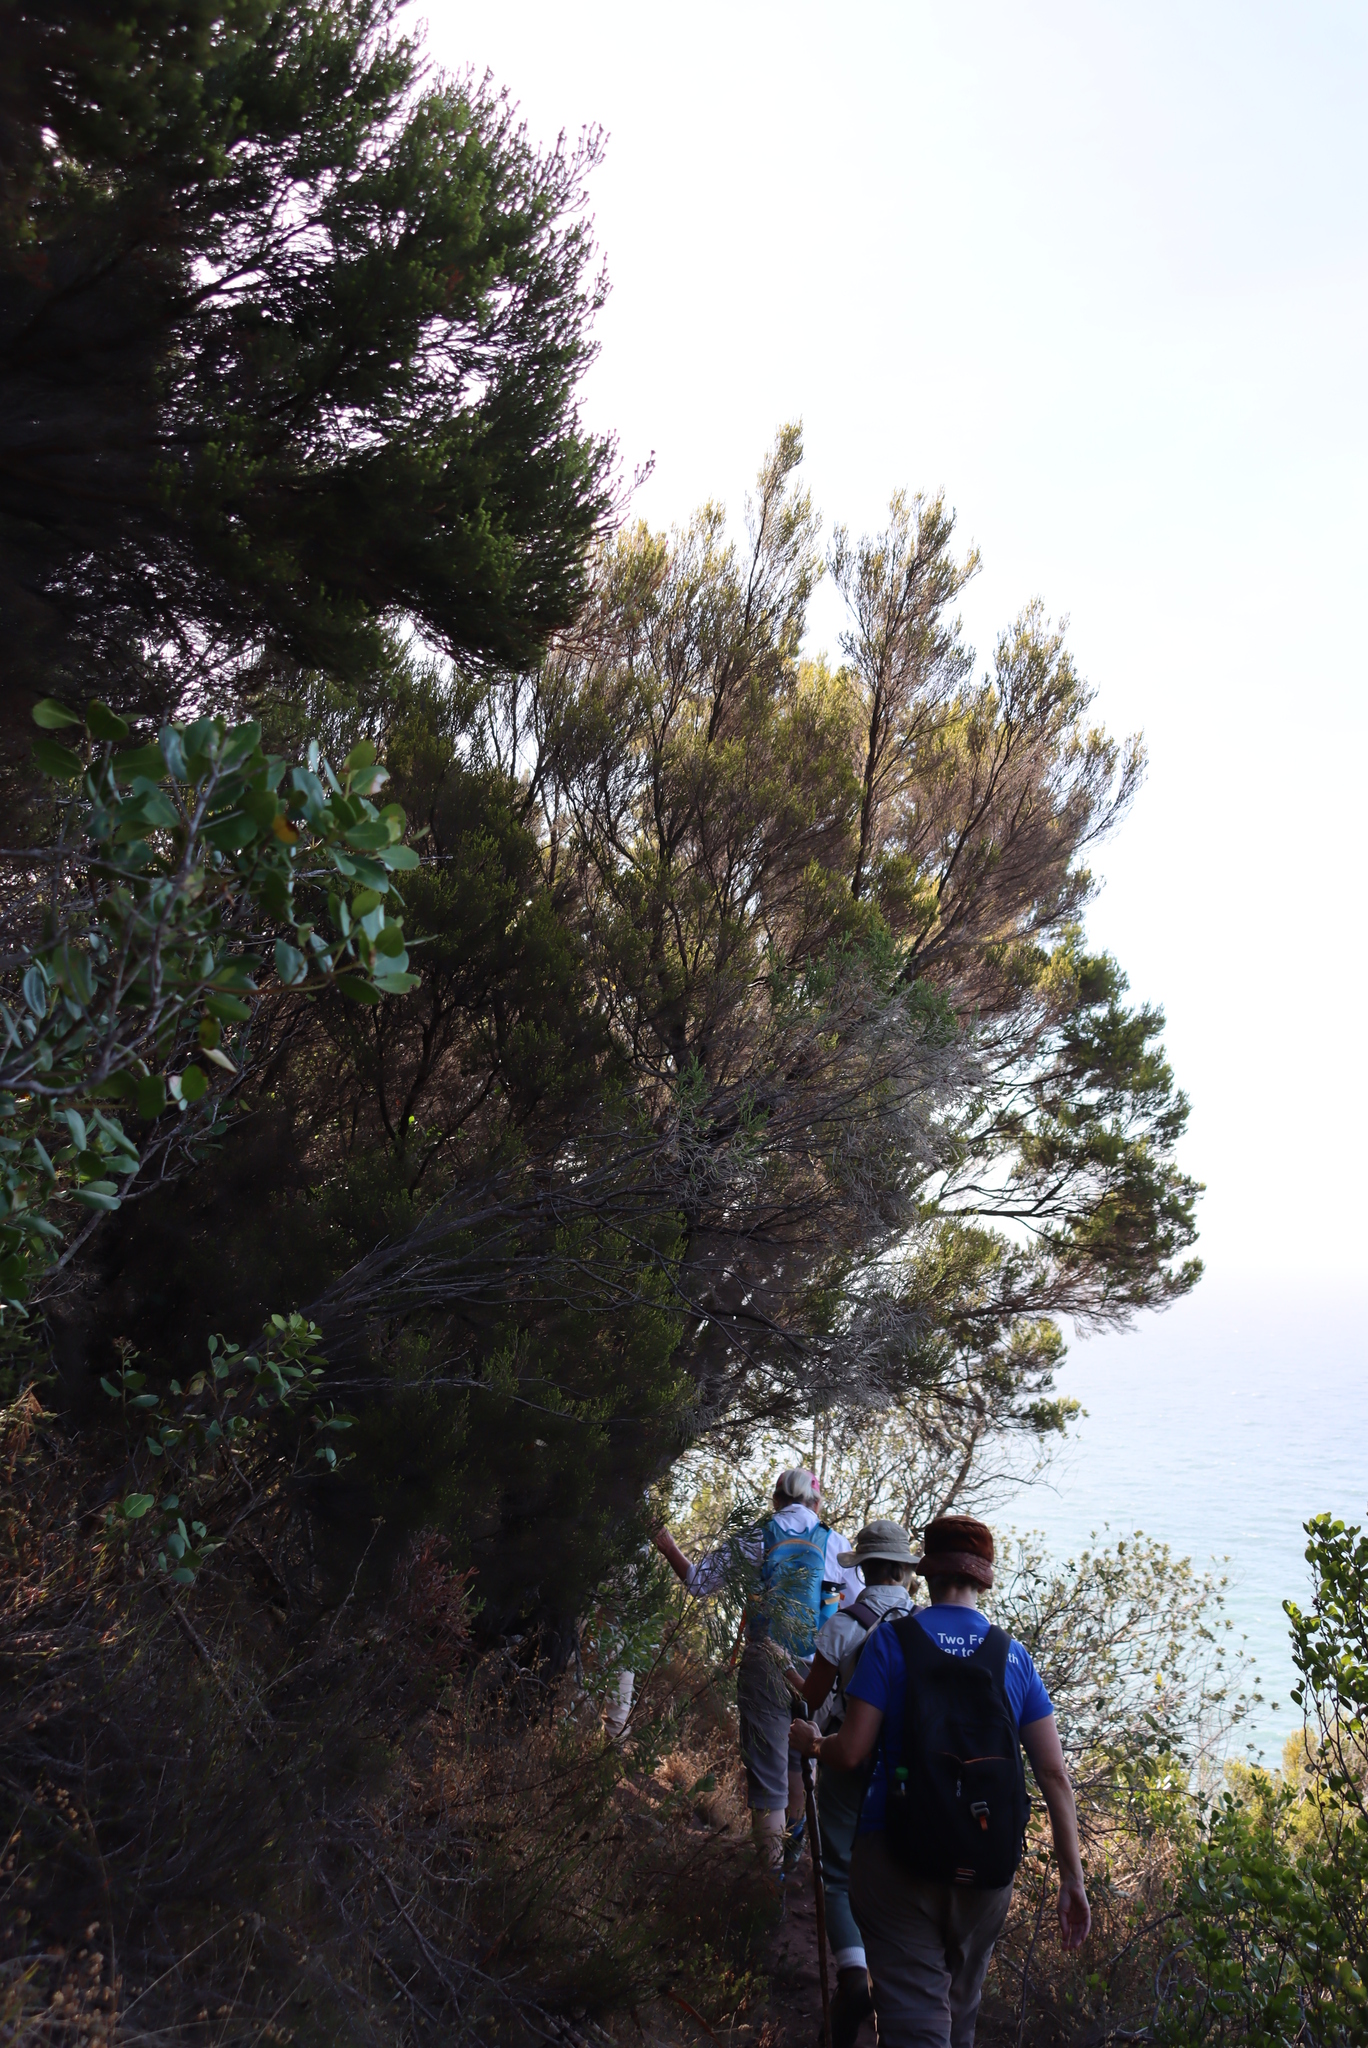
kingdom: Plantae
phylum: Tracheophyta
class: Magnoliopsida
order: Ericales
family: Ericaceae
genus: Erica
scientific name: Erica tristis
